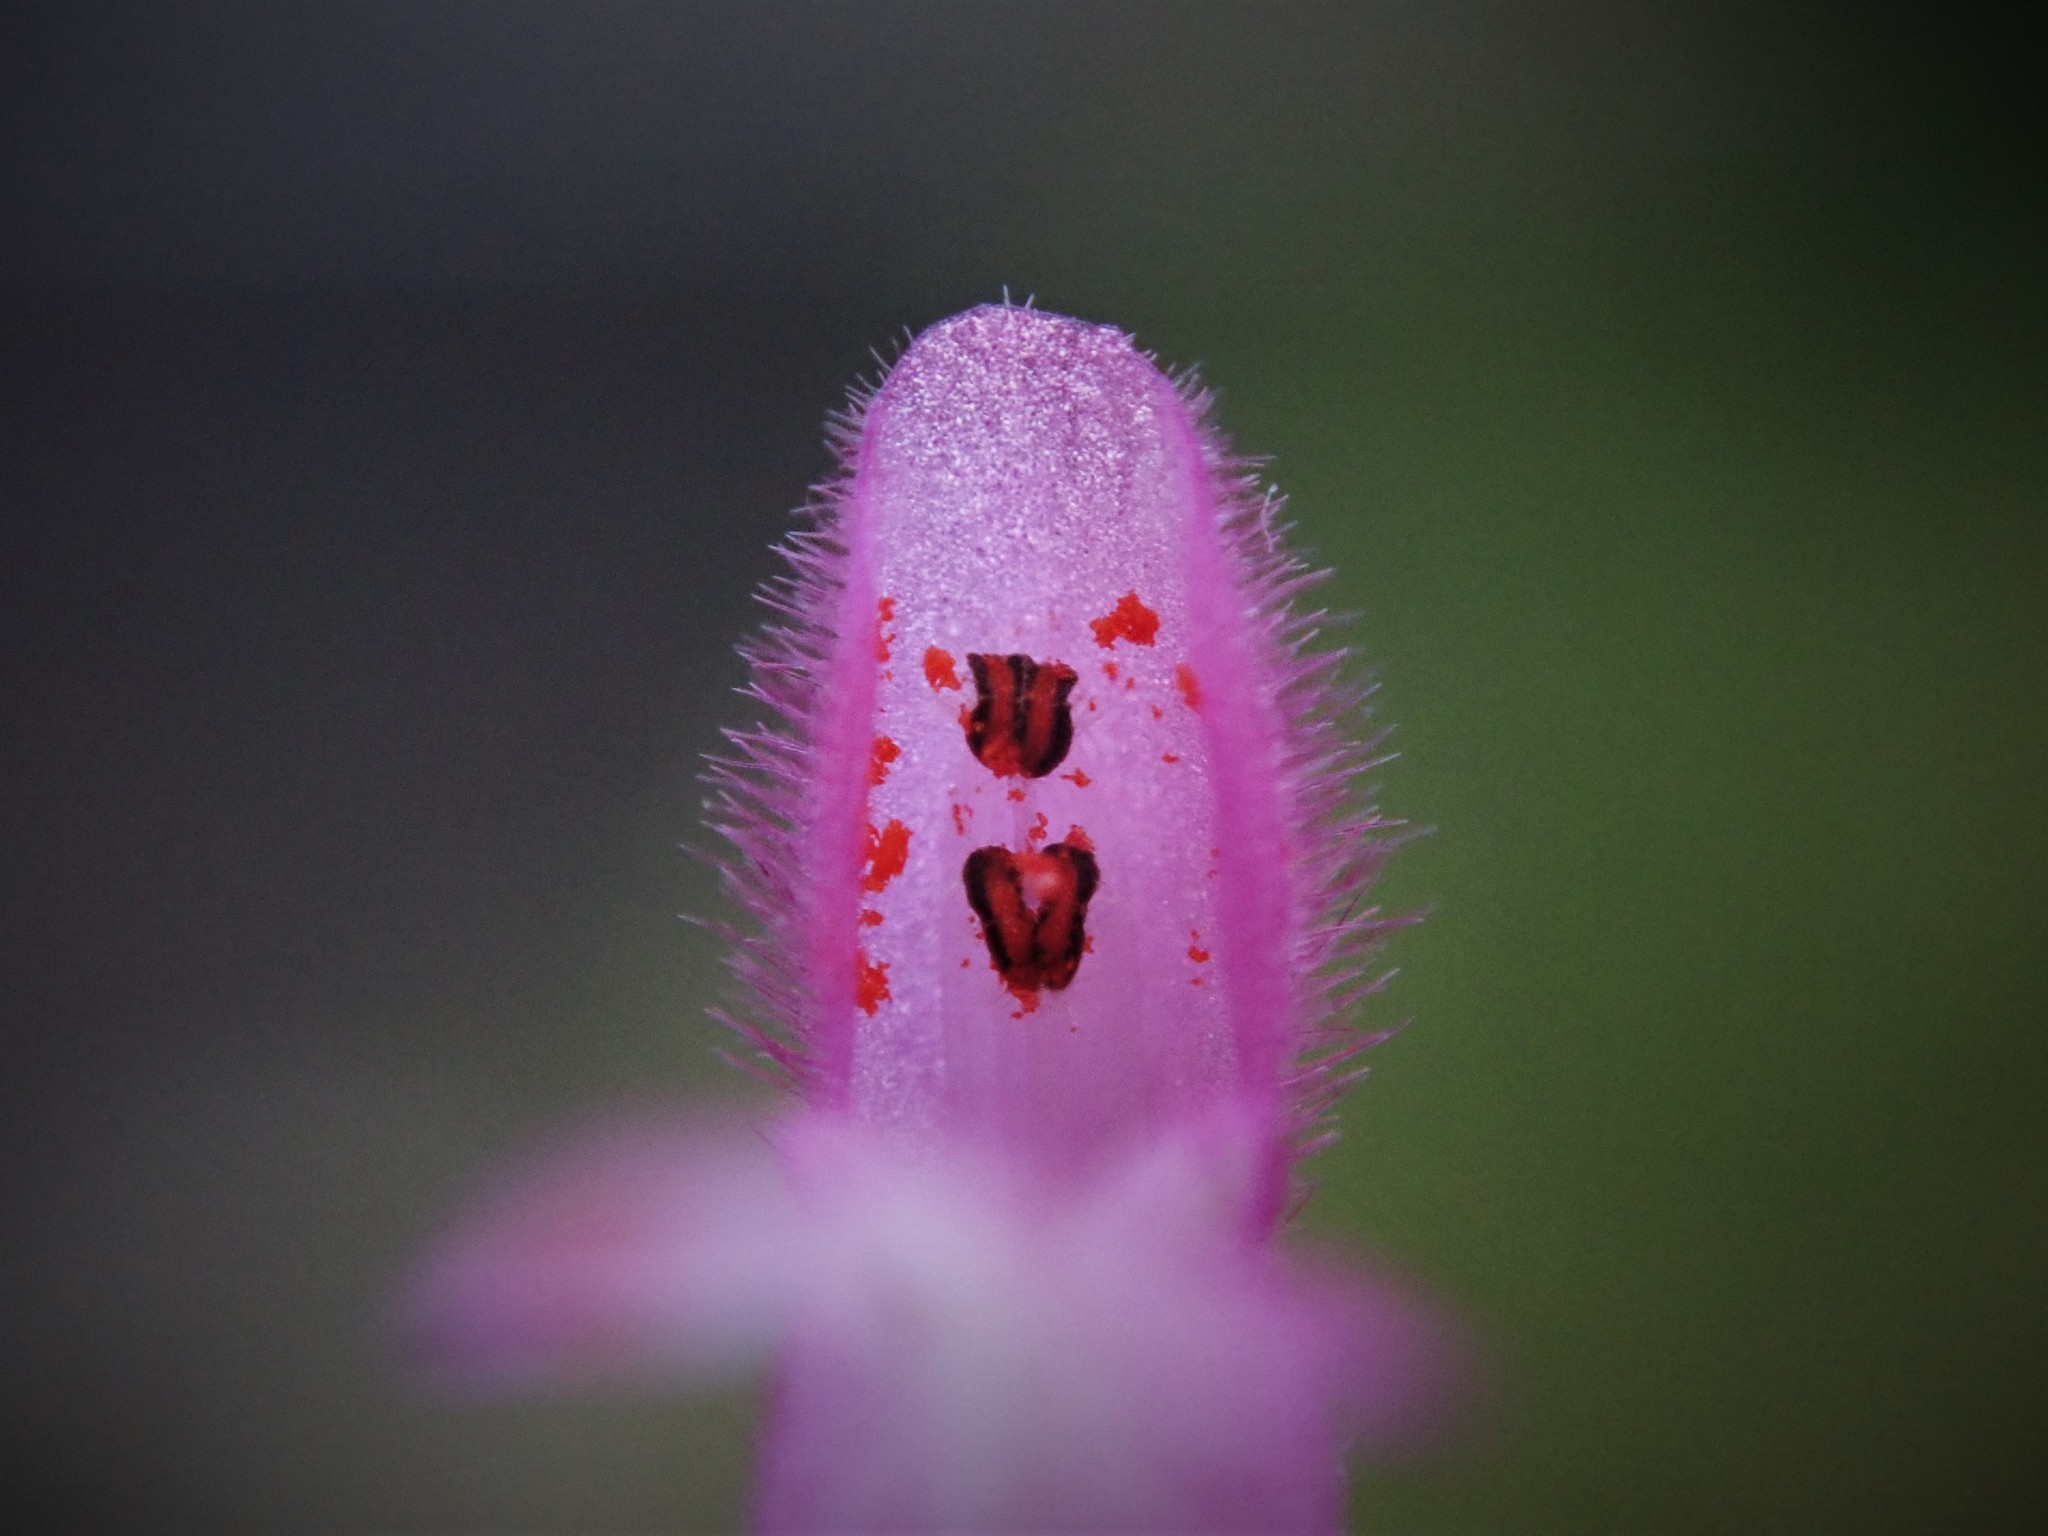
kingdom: Plantae
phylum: Tracheophyta
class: Magnoliopsida
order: Lamiales
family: Lamiaceae
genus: Lamium
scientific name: Lamium amplexicaule
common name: Henbit dead-nettle
